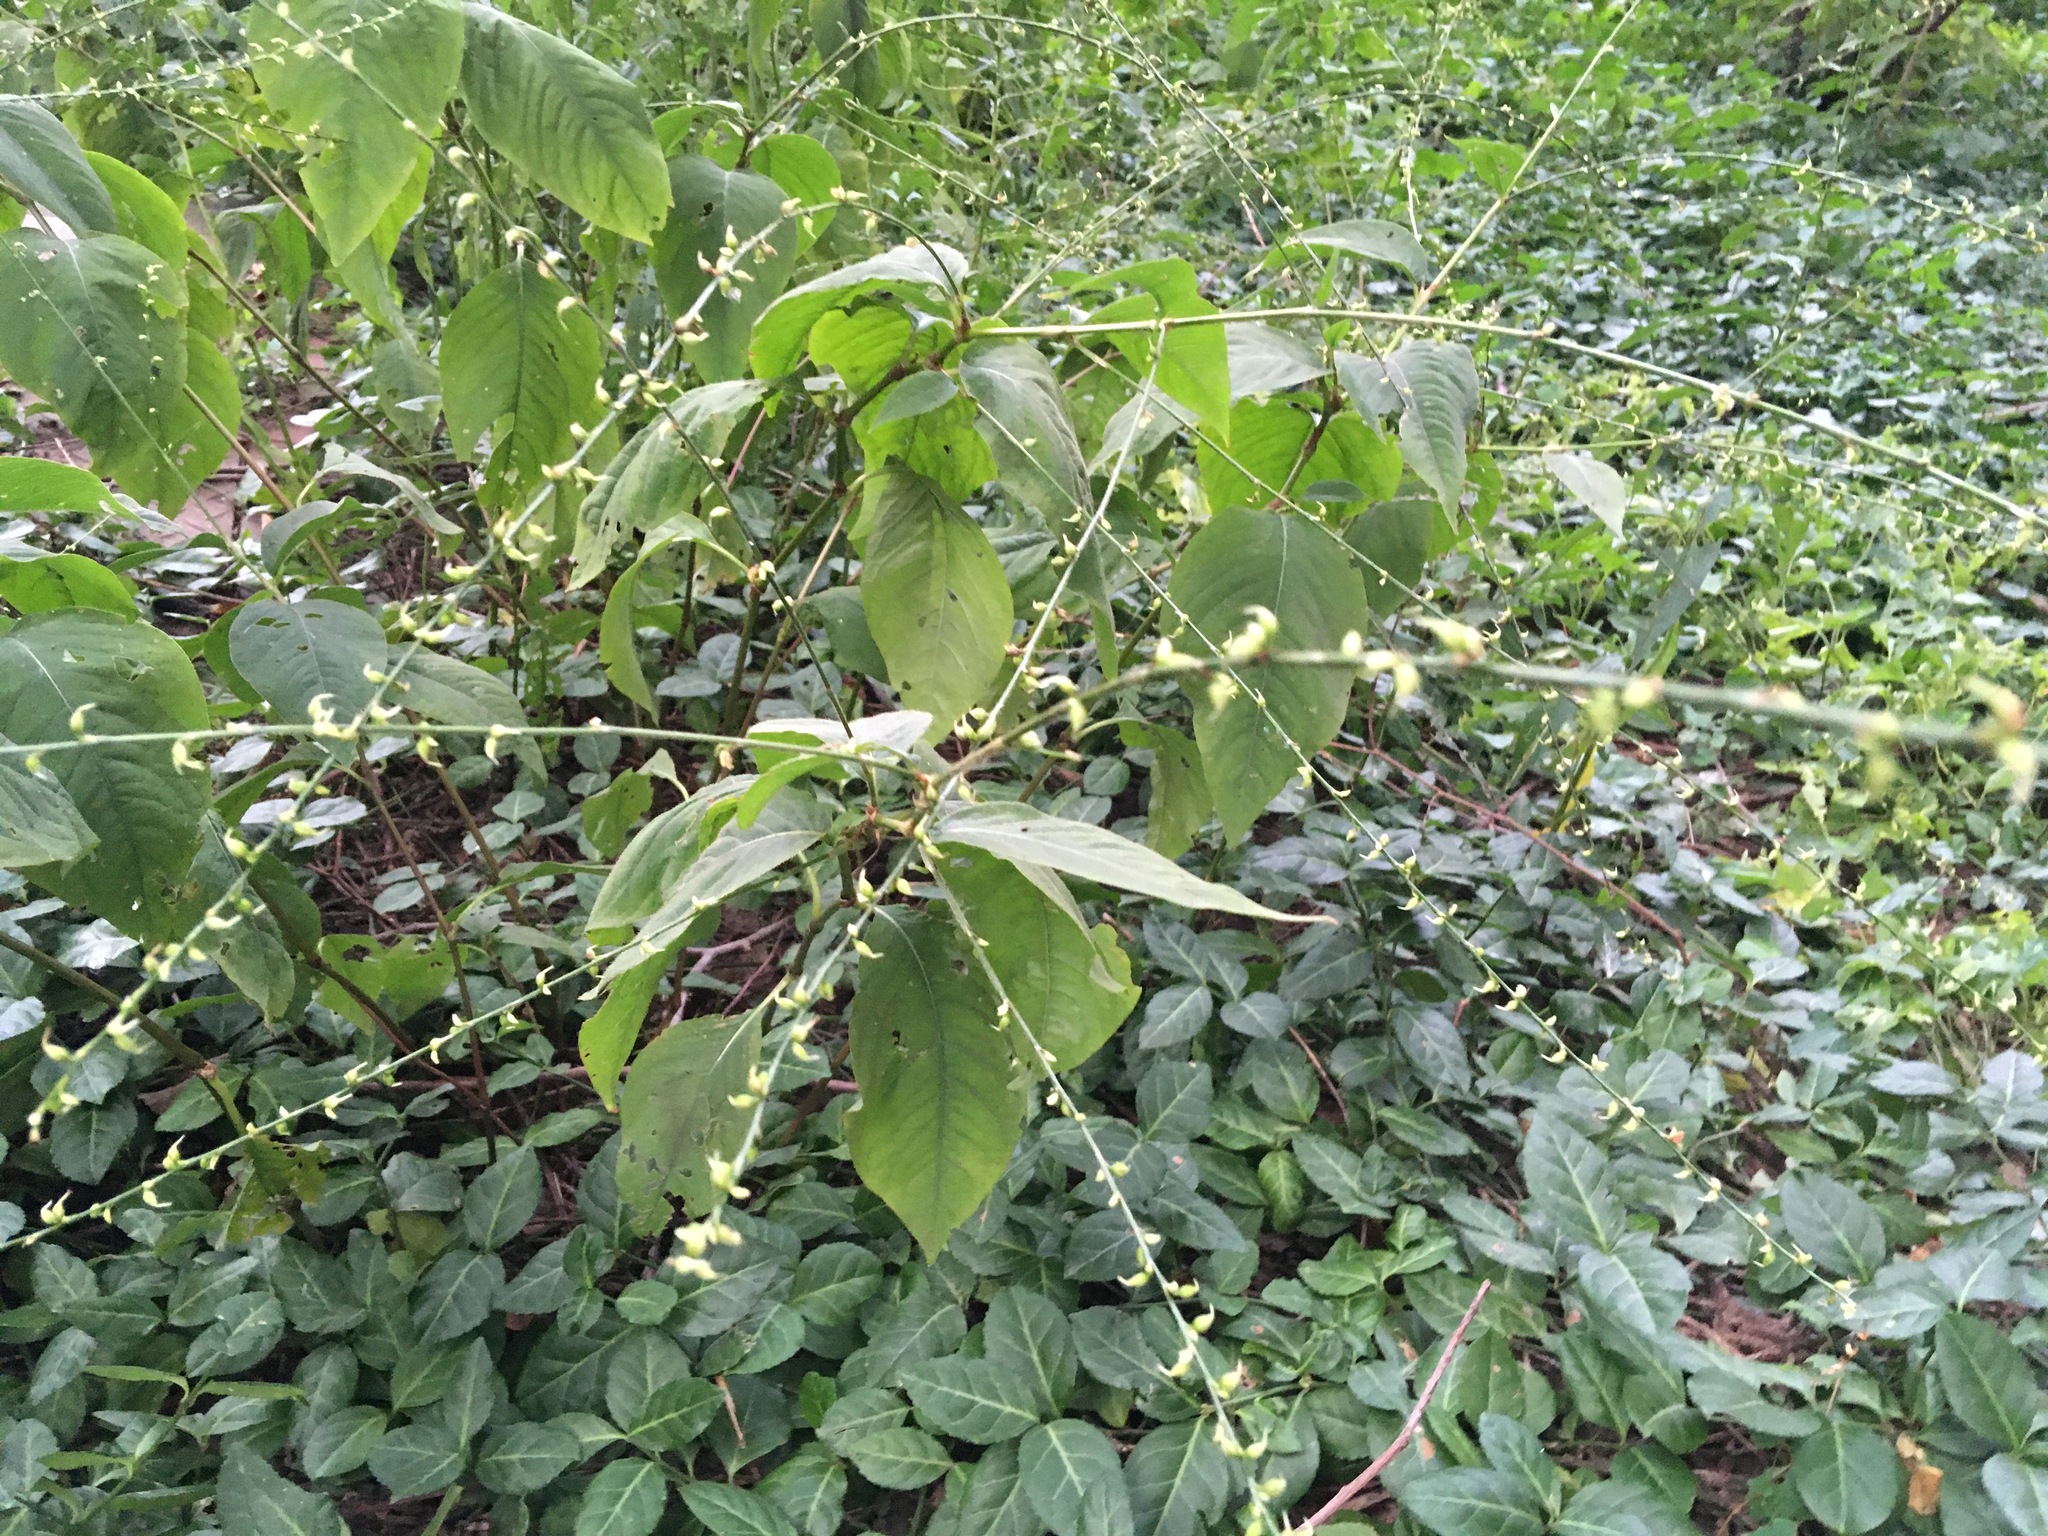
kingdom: Plantae
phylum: Tracheophyta
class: Magnoliopsida
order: Caryophyllales
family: Polygonaceae
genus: Persicaria
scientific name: Persicaria virginiana
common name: Jumpseed
